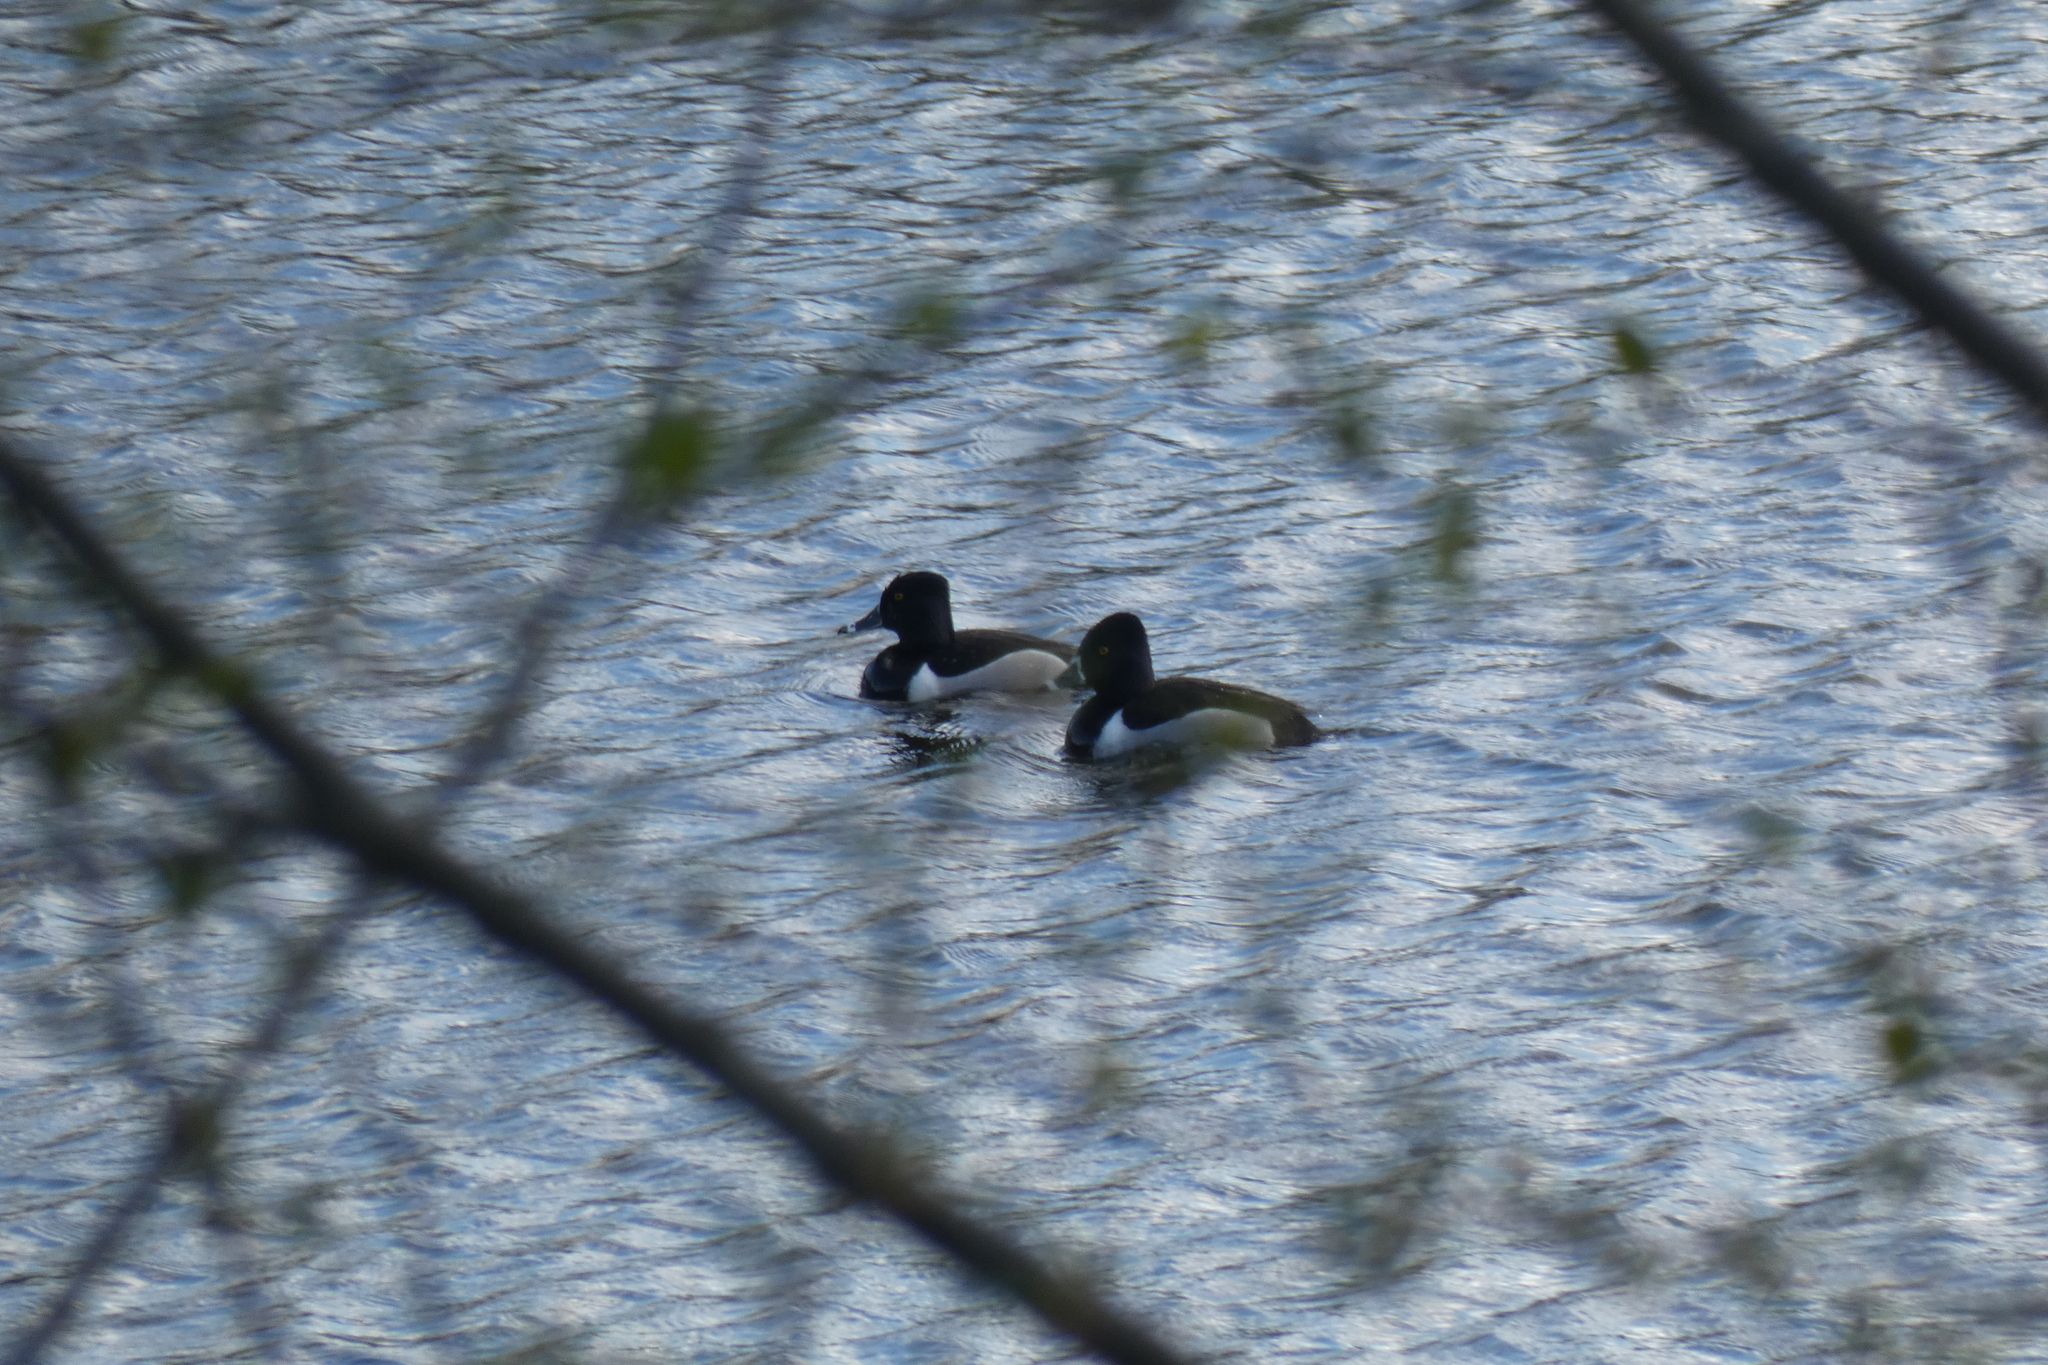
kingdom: Animalia
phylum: Chordata
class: Aves
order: Anseriformes
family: Anatidae
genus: Aythya
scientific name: Aythya collaris
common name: Ring-necked duck
